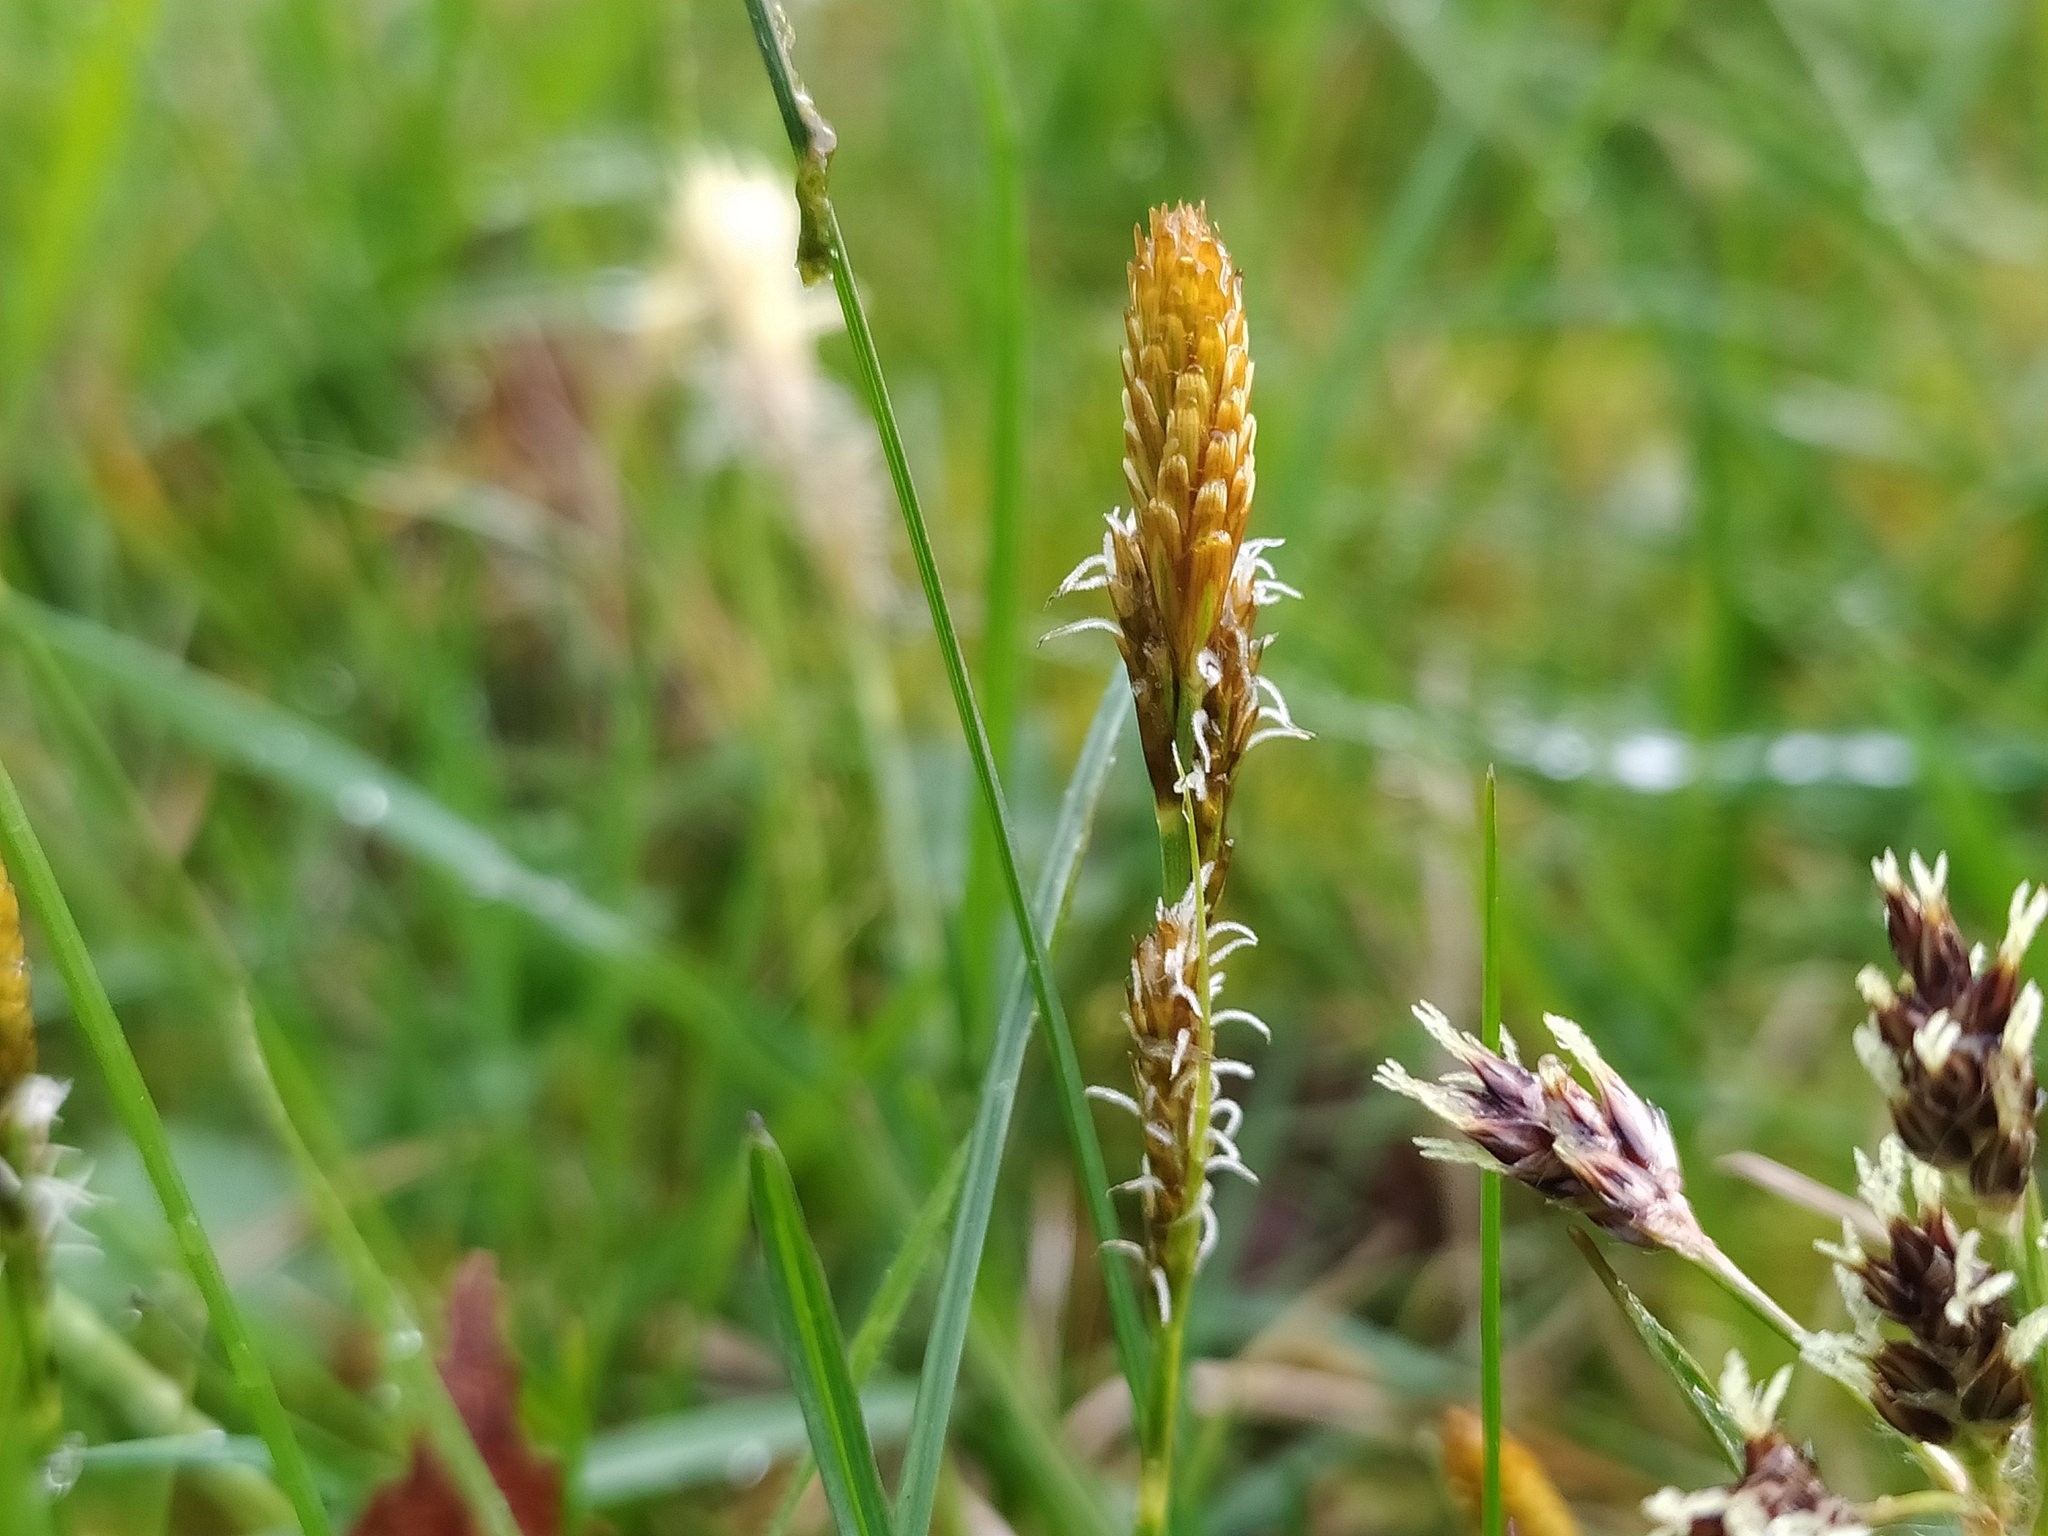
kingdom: Plantae
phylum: Tracheophyta
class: Liliopsida
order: Poales
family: Cyperaceae
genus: Carex
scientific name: Carex caryophyllea
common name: Spring sedge
